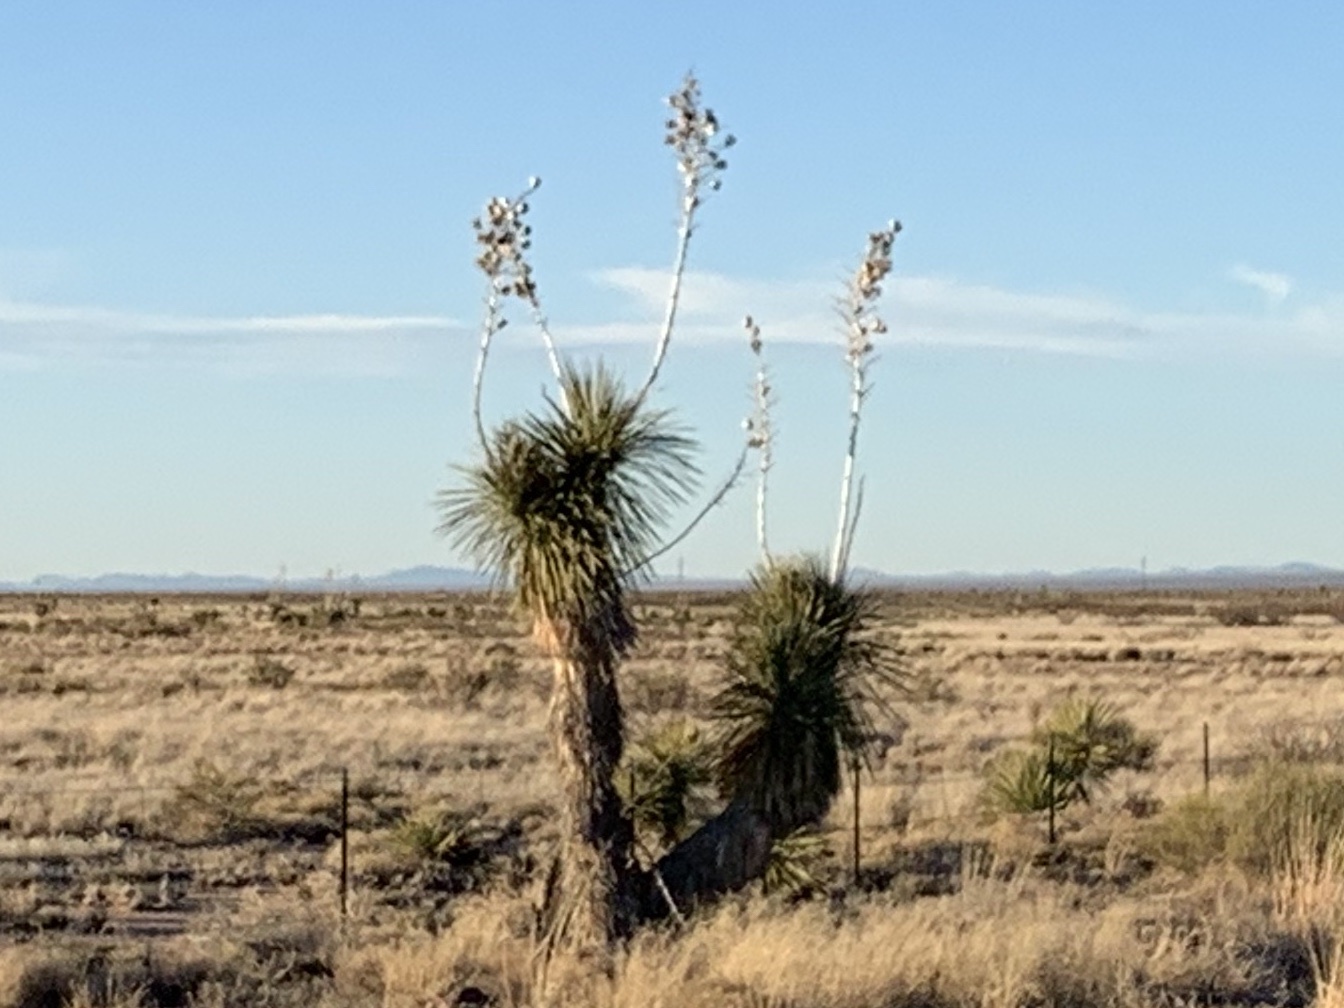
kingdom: Plantae
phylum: Tracheophyta
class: Liliopsida
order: Asparagales
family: Asparagaceae
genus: Yucca
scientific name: Yucca elata
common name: Palmella
